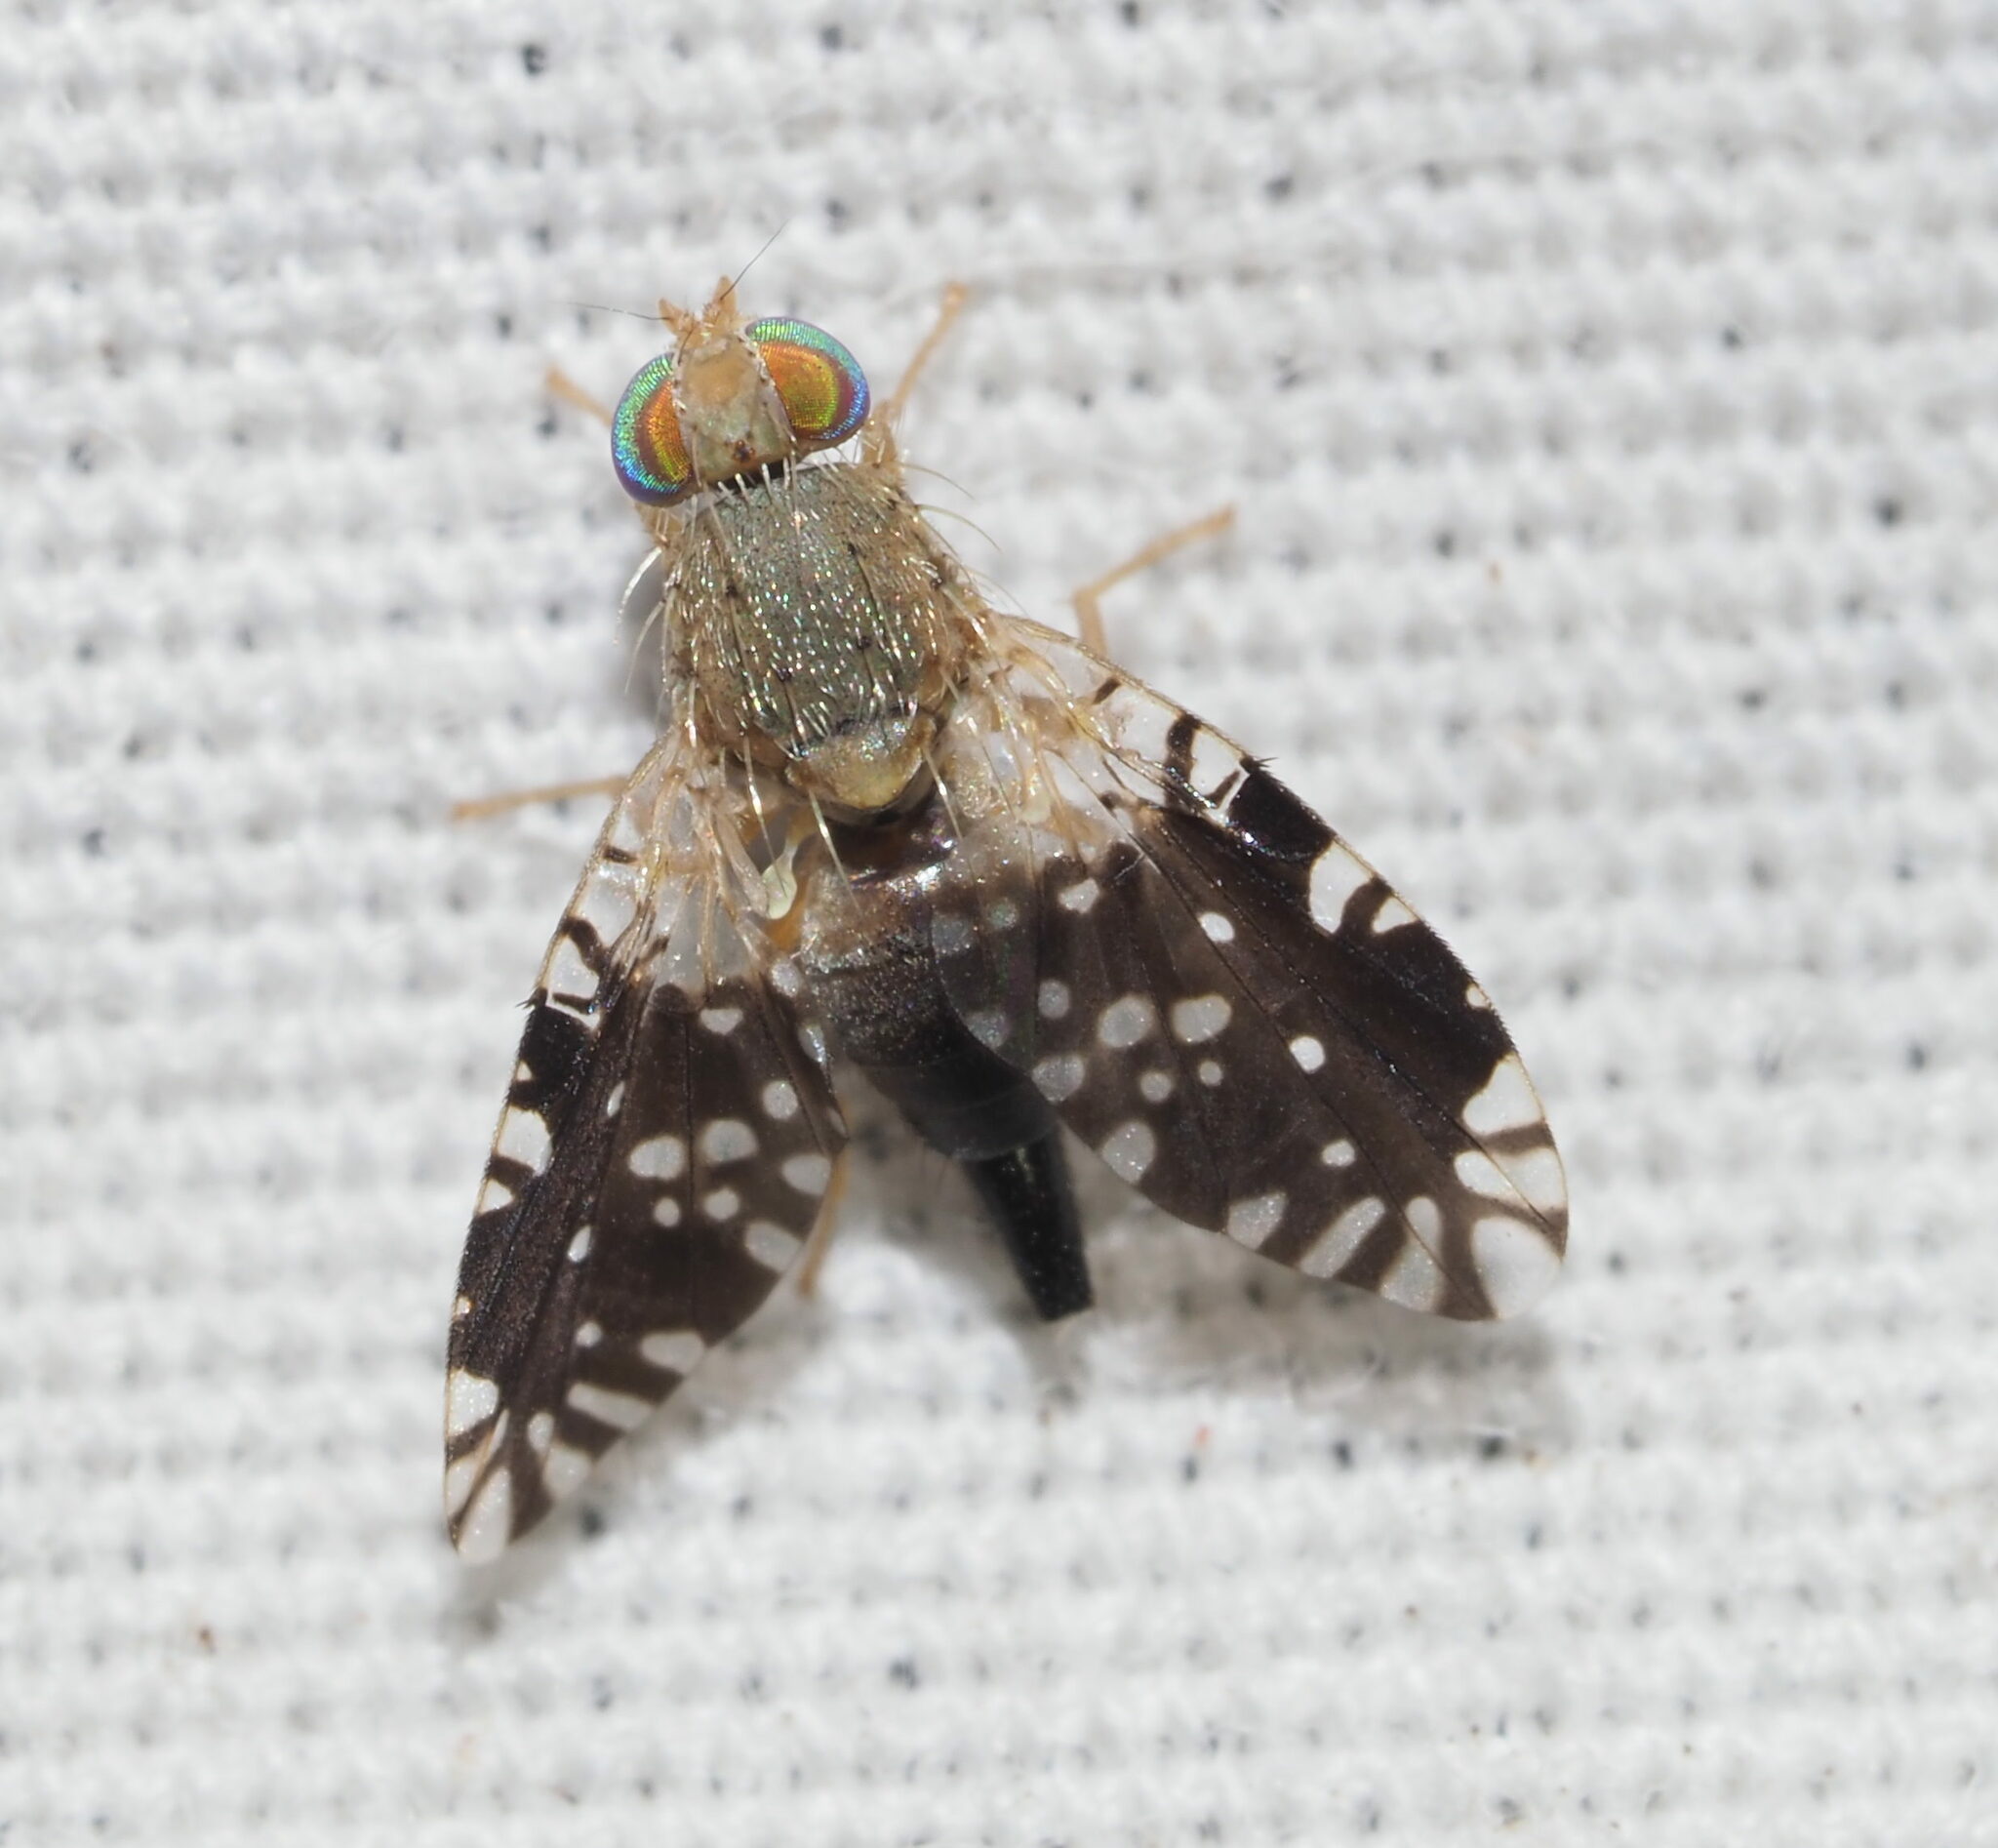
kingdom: Animalia
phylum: Arthropoda
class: Insecta
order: Diptera
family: Tephritidae
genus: Tetreuaresta
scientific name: Tetreuaresta obscuriventris
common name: Fruit fly
